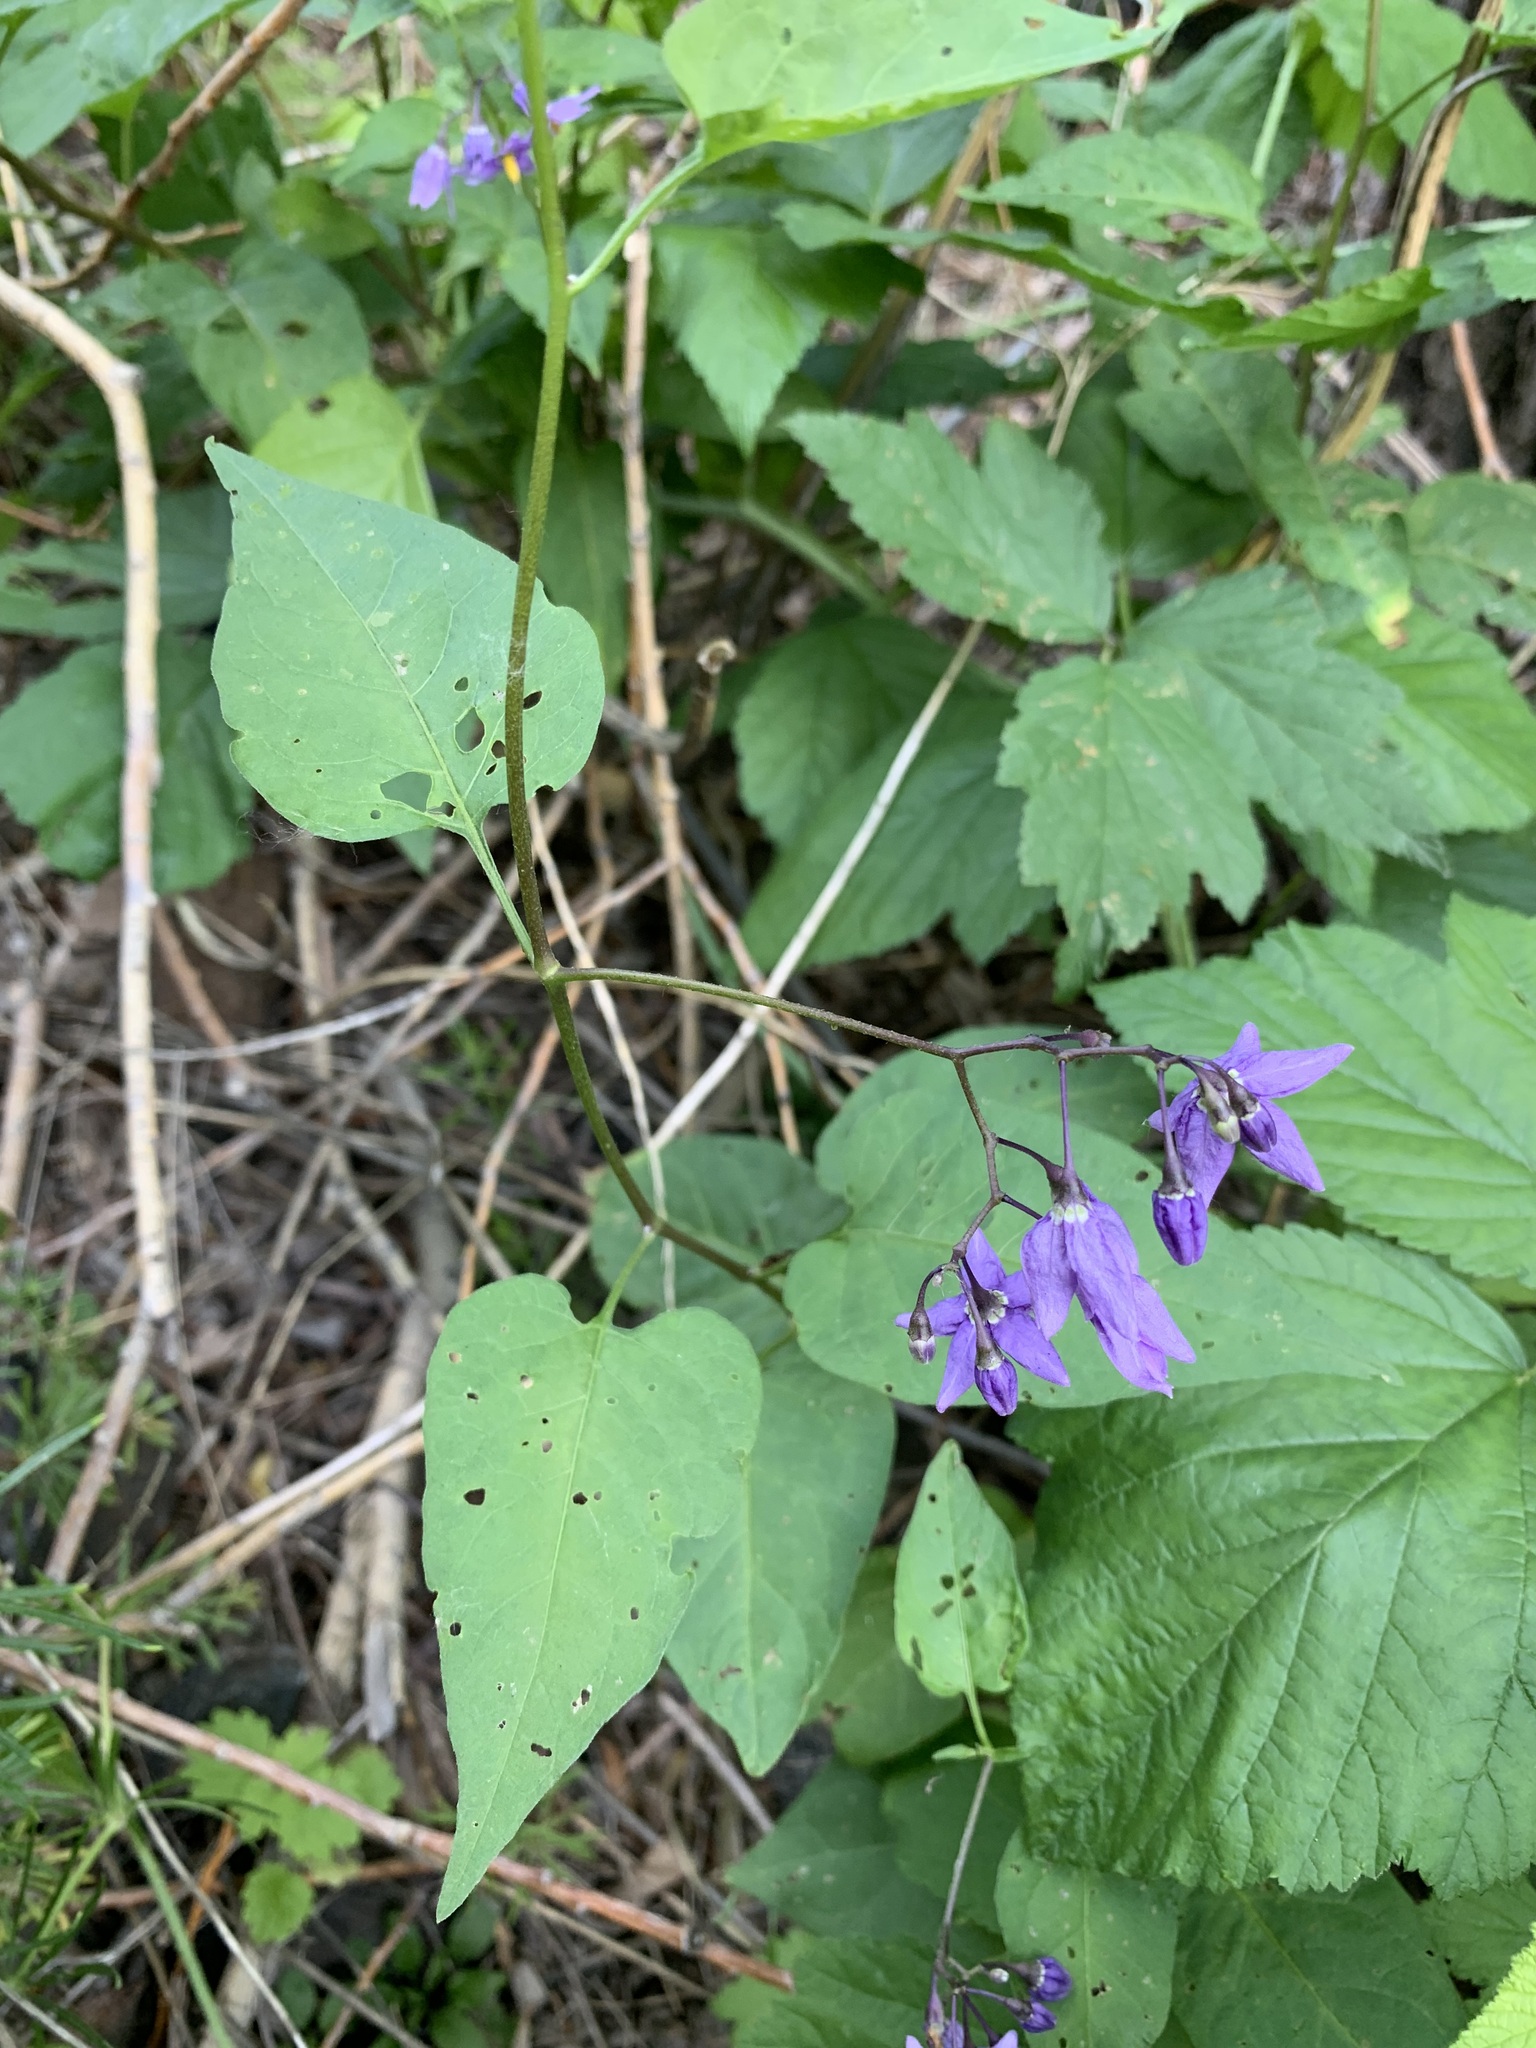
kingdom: Plantae
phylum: Tracheophyta
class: Magnoliopsida
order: Solanales
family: Solanaceae
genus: Solanum
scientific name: Solanum dulcamara
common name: Climbing nightshade
